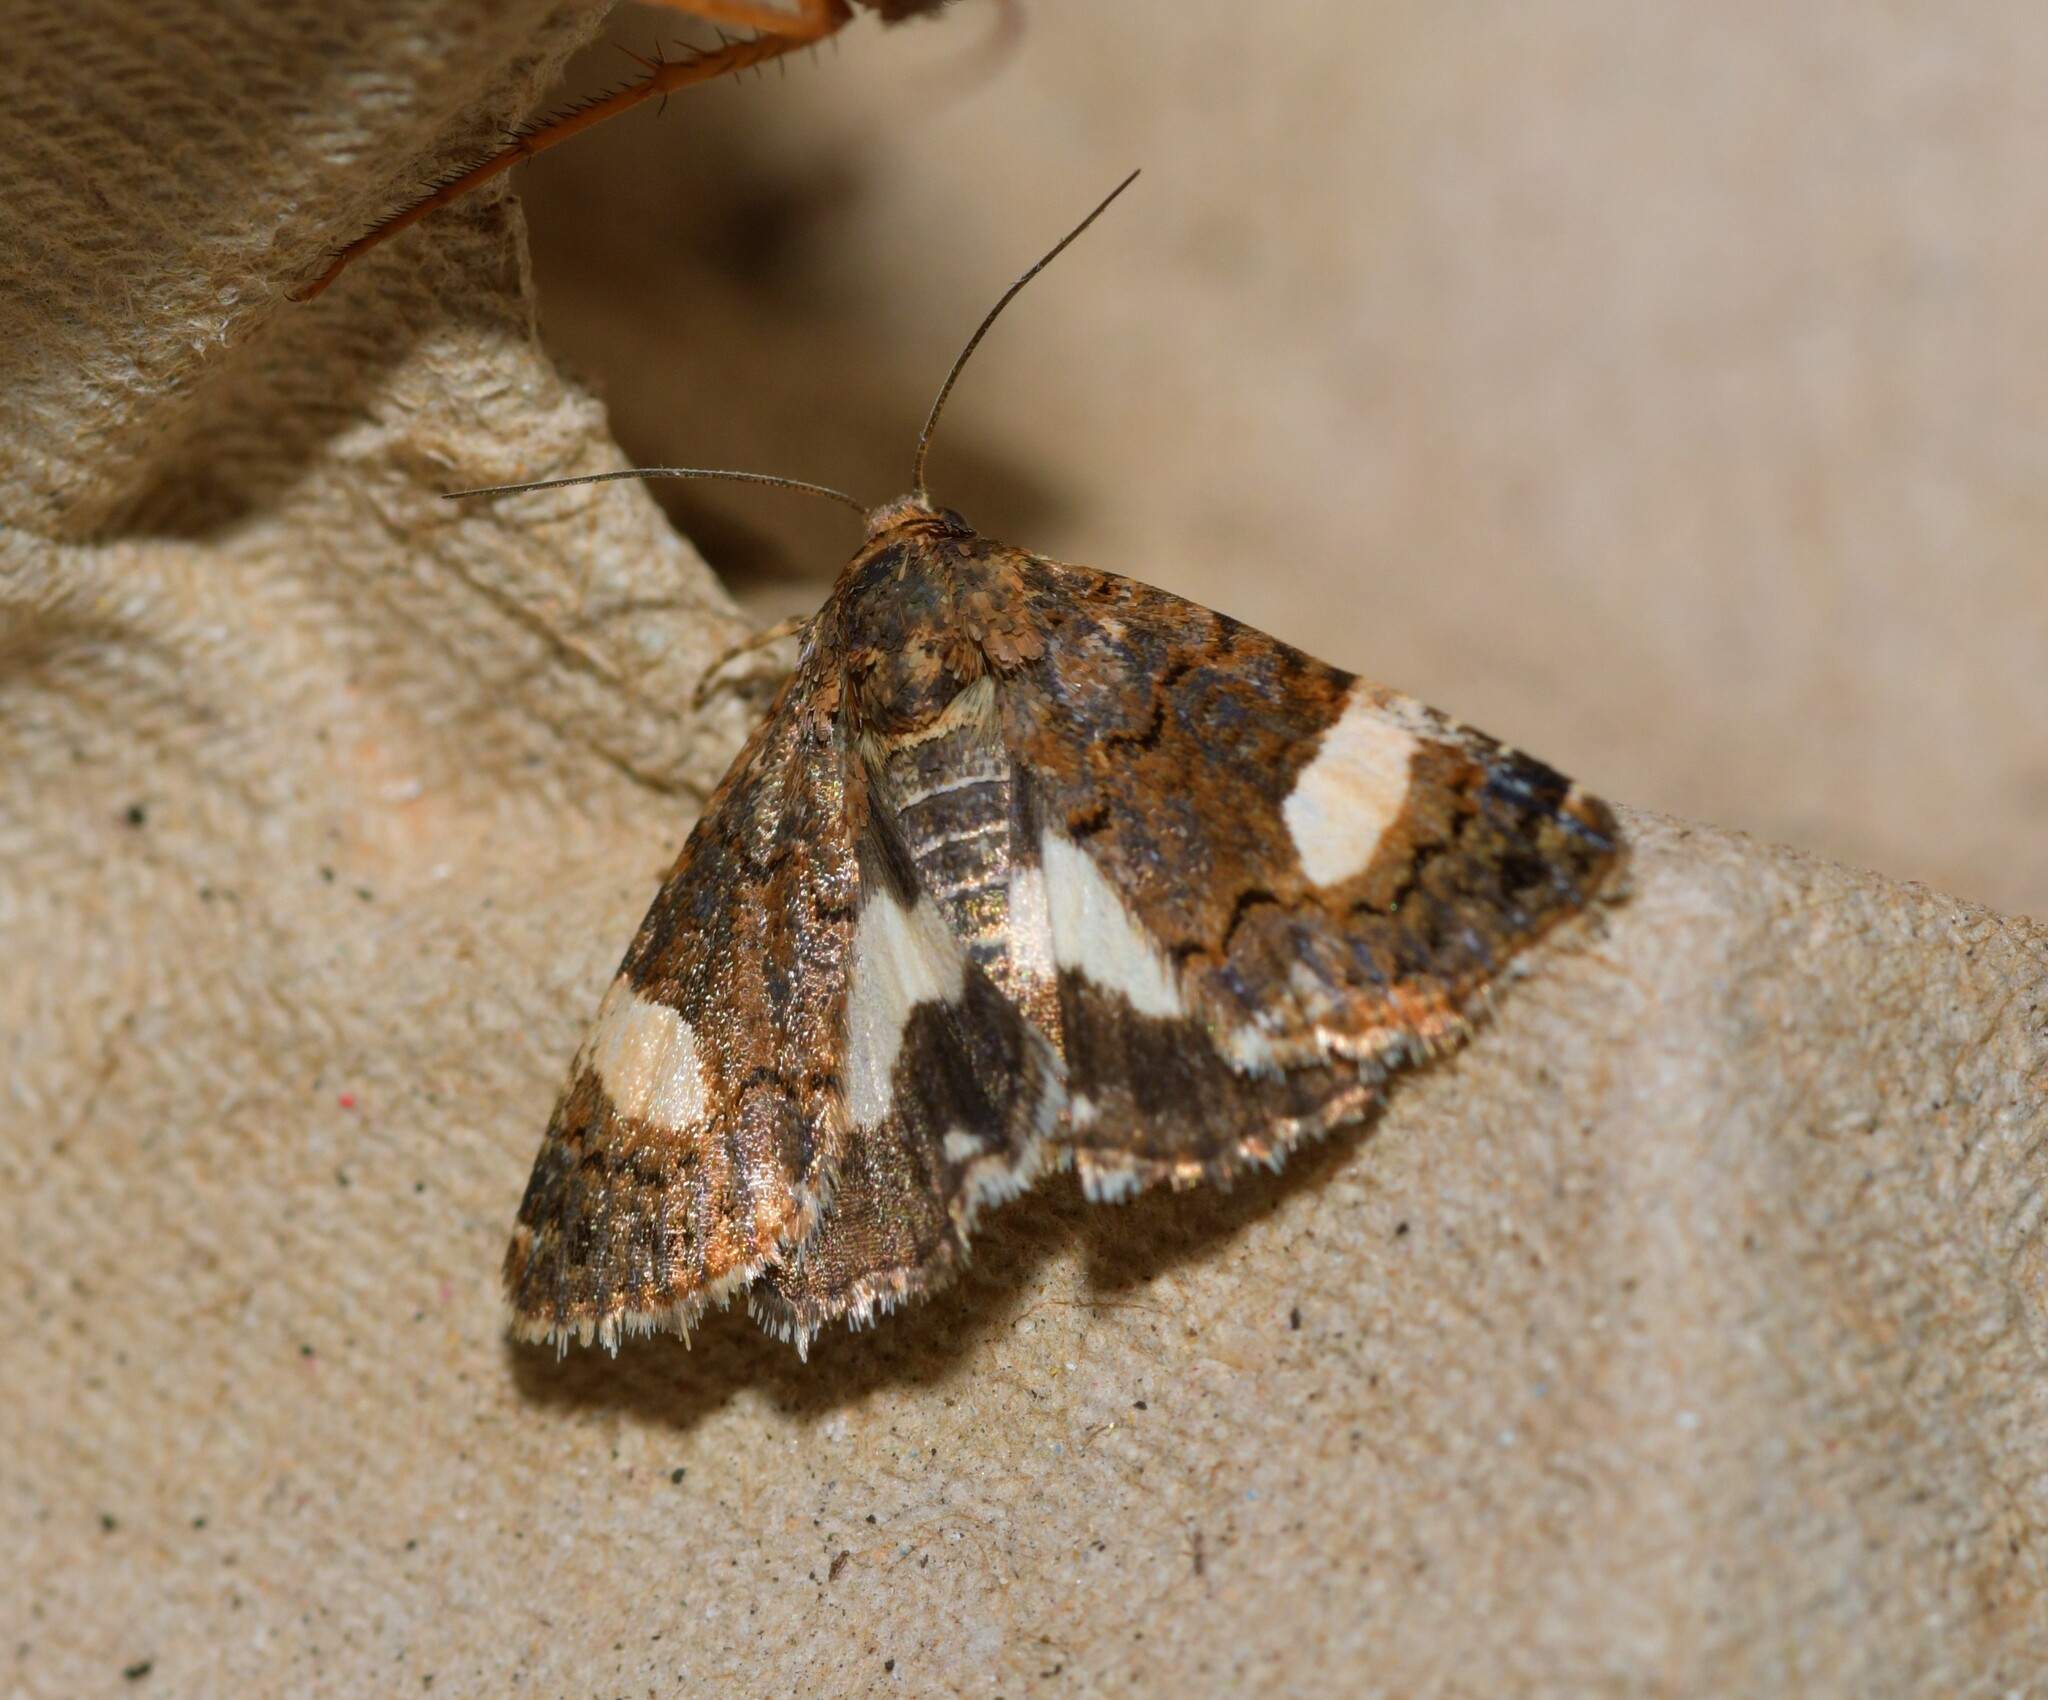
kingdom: Animalia
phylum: Arthropoda
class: Insecta
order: Lepidoptera
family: Erebidae
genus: Tyta
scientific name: Tyta luctuosa
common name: Four-spotted
